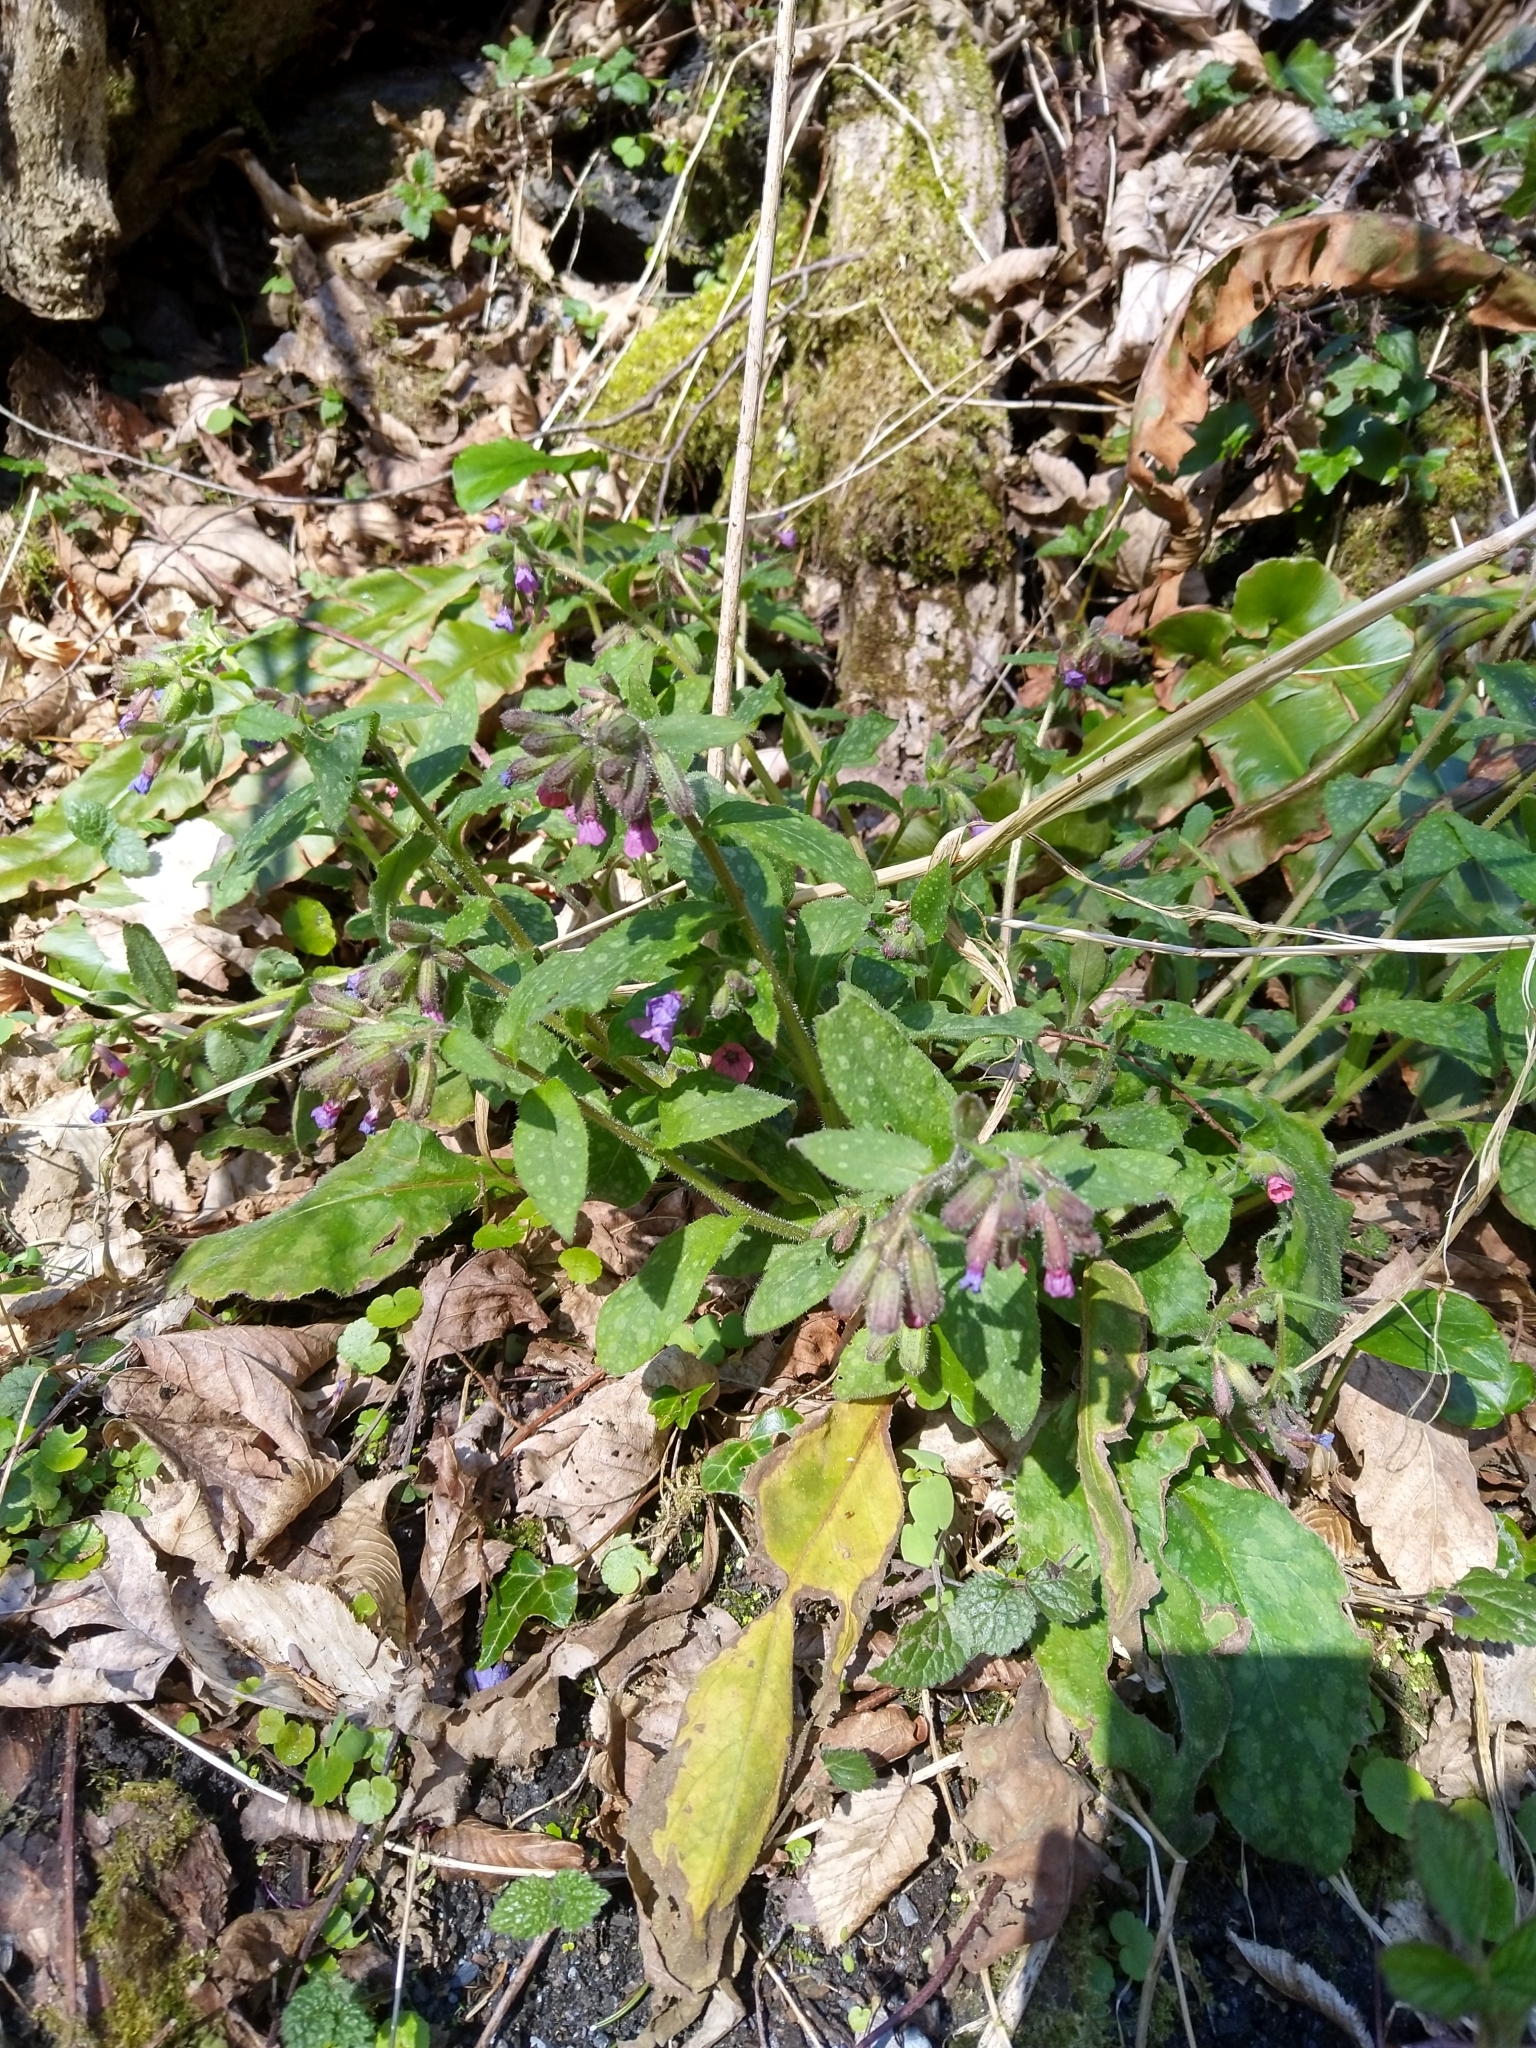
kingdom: Plantae
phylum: Tracheophyta
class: Magnoliopsida
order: Boraginales
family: Boraginaceae
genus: Pulmonaria
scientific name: Pulmonaria officinalis
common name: Lungwort
